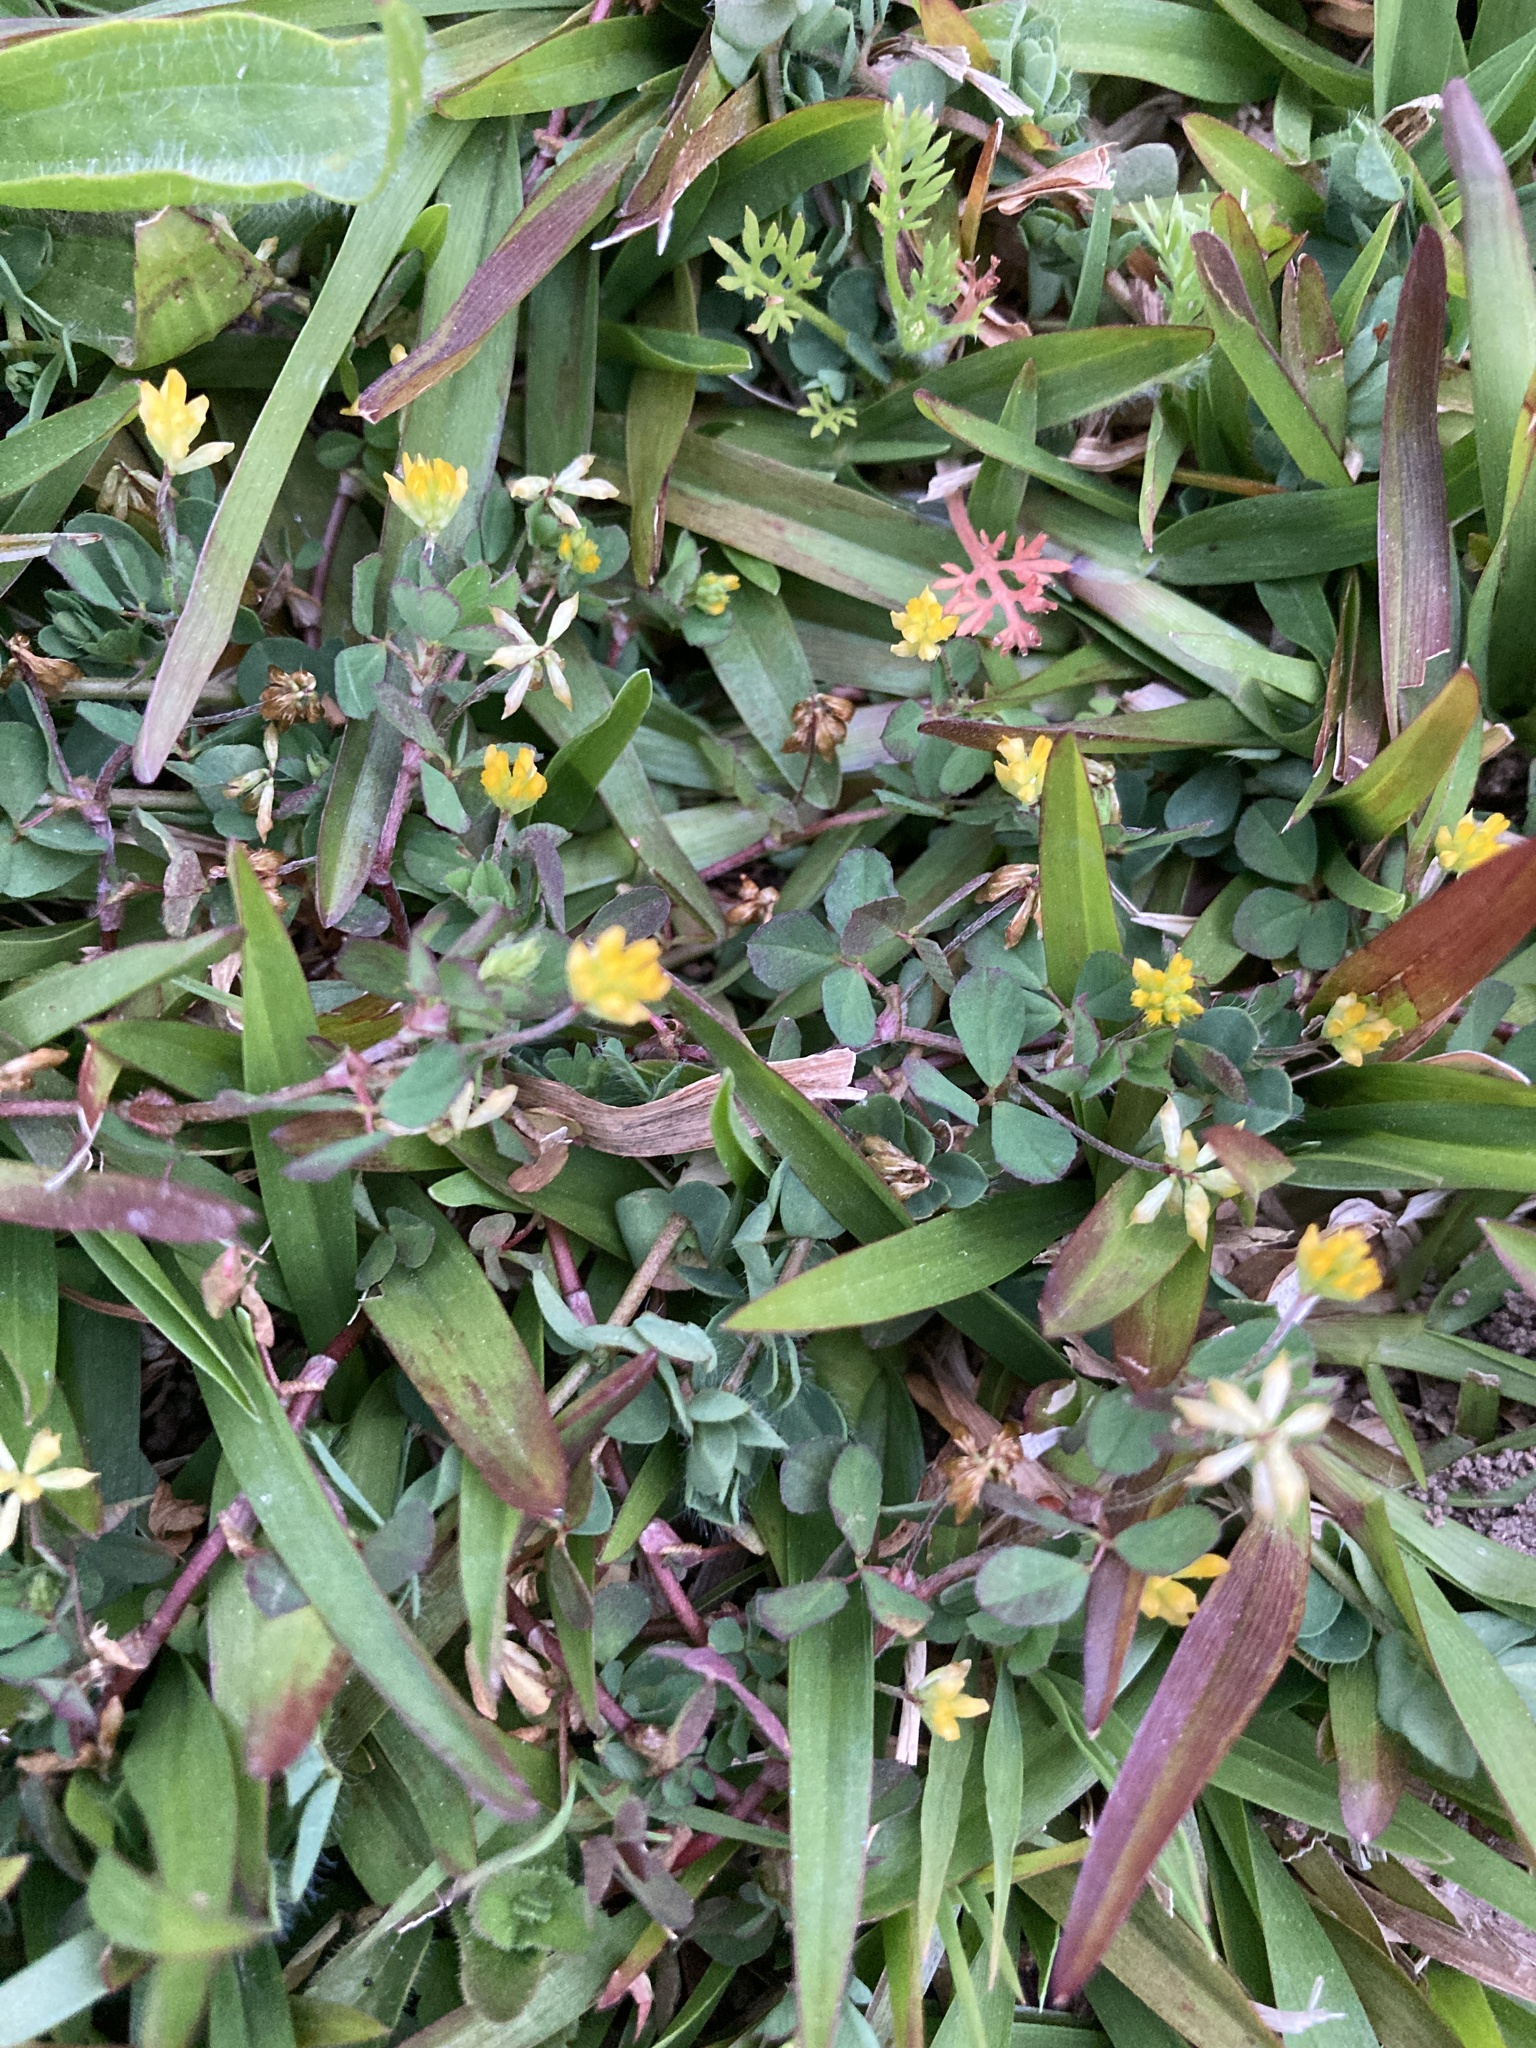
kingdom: Plantae
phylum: Tracheophyta
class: Magnoliopsida
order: Fabales
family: Fabaceae
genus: Trifolium
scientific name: Trifolium dubium
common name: Suckling clover
